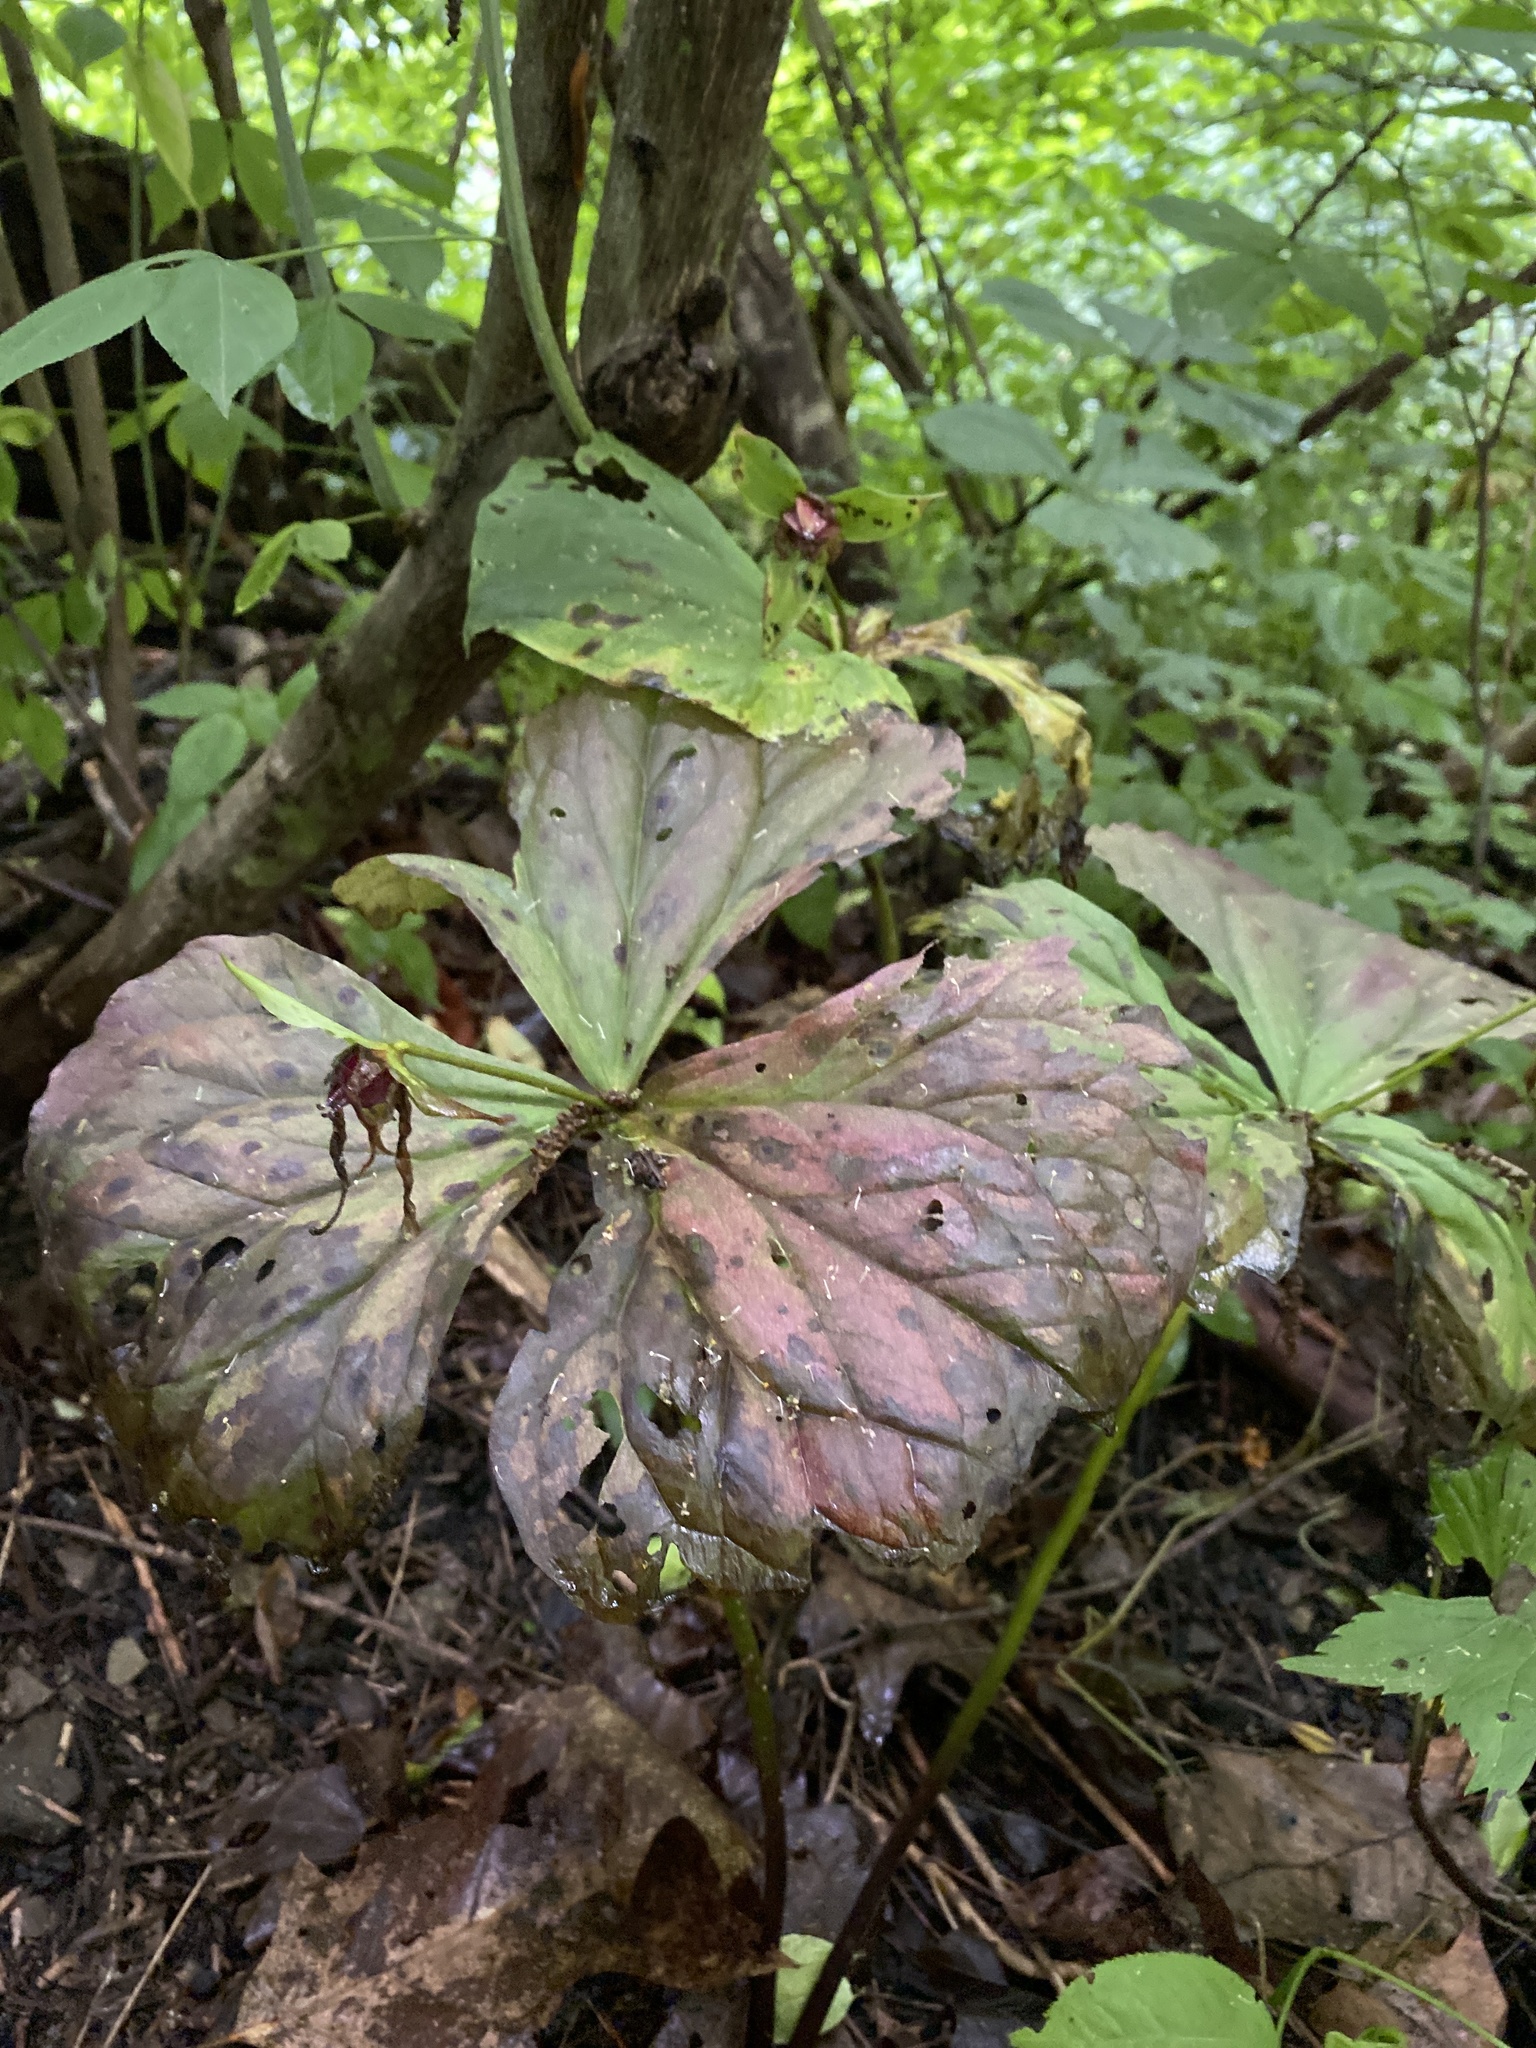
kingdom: Plantae
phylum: Tracheophyta
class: Liliopsida
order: Liliales
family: Melanthiaceae
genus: Trillium
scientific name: Trillium erectum
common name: Purple trillium
